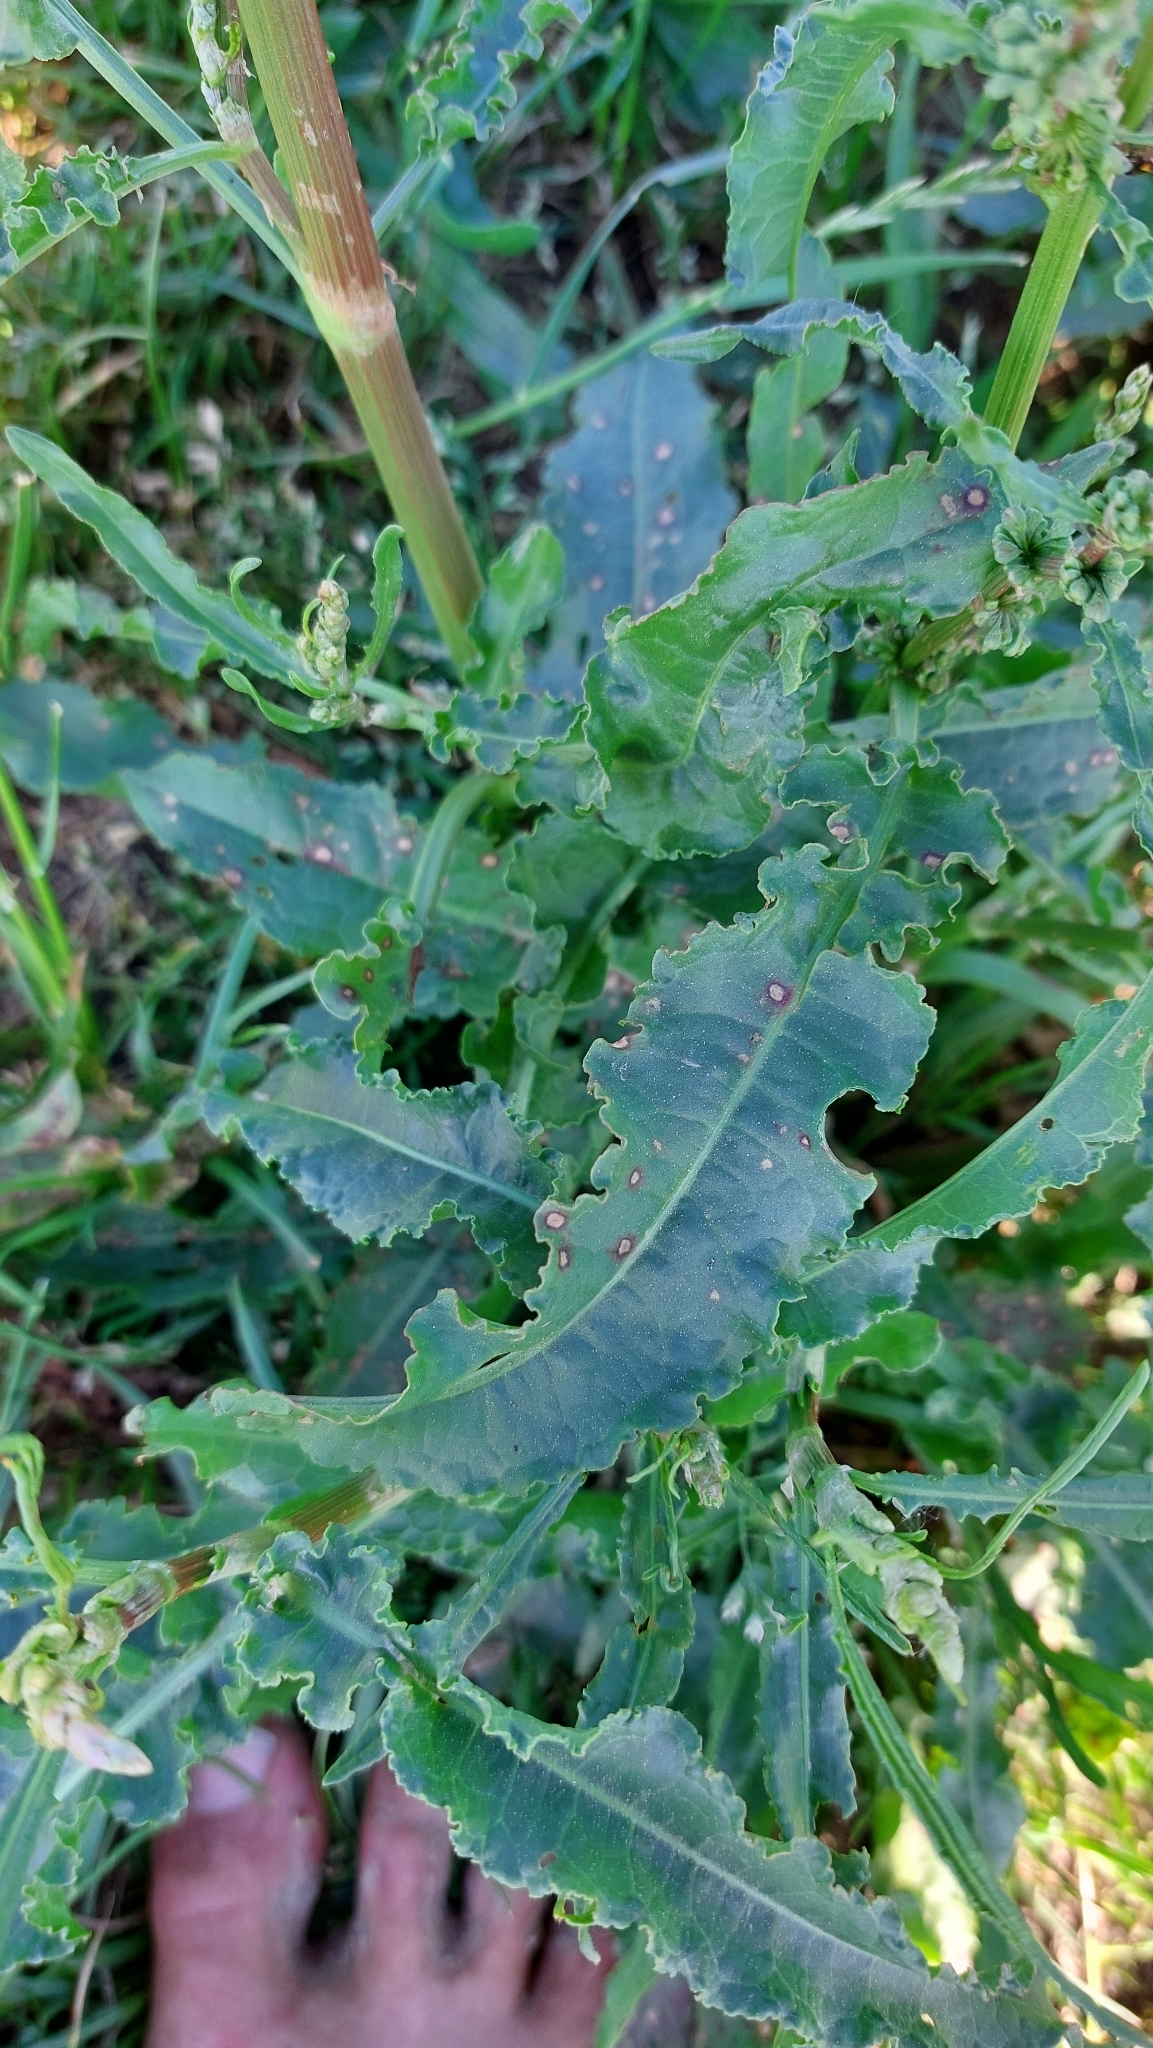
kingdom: Plantae
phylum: Tracheophyta
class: Magnoliopsida
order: Caryophyllales
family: Polygonaceae
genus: Rumex
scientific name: Rumex crispus
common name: Curled dock
